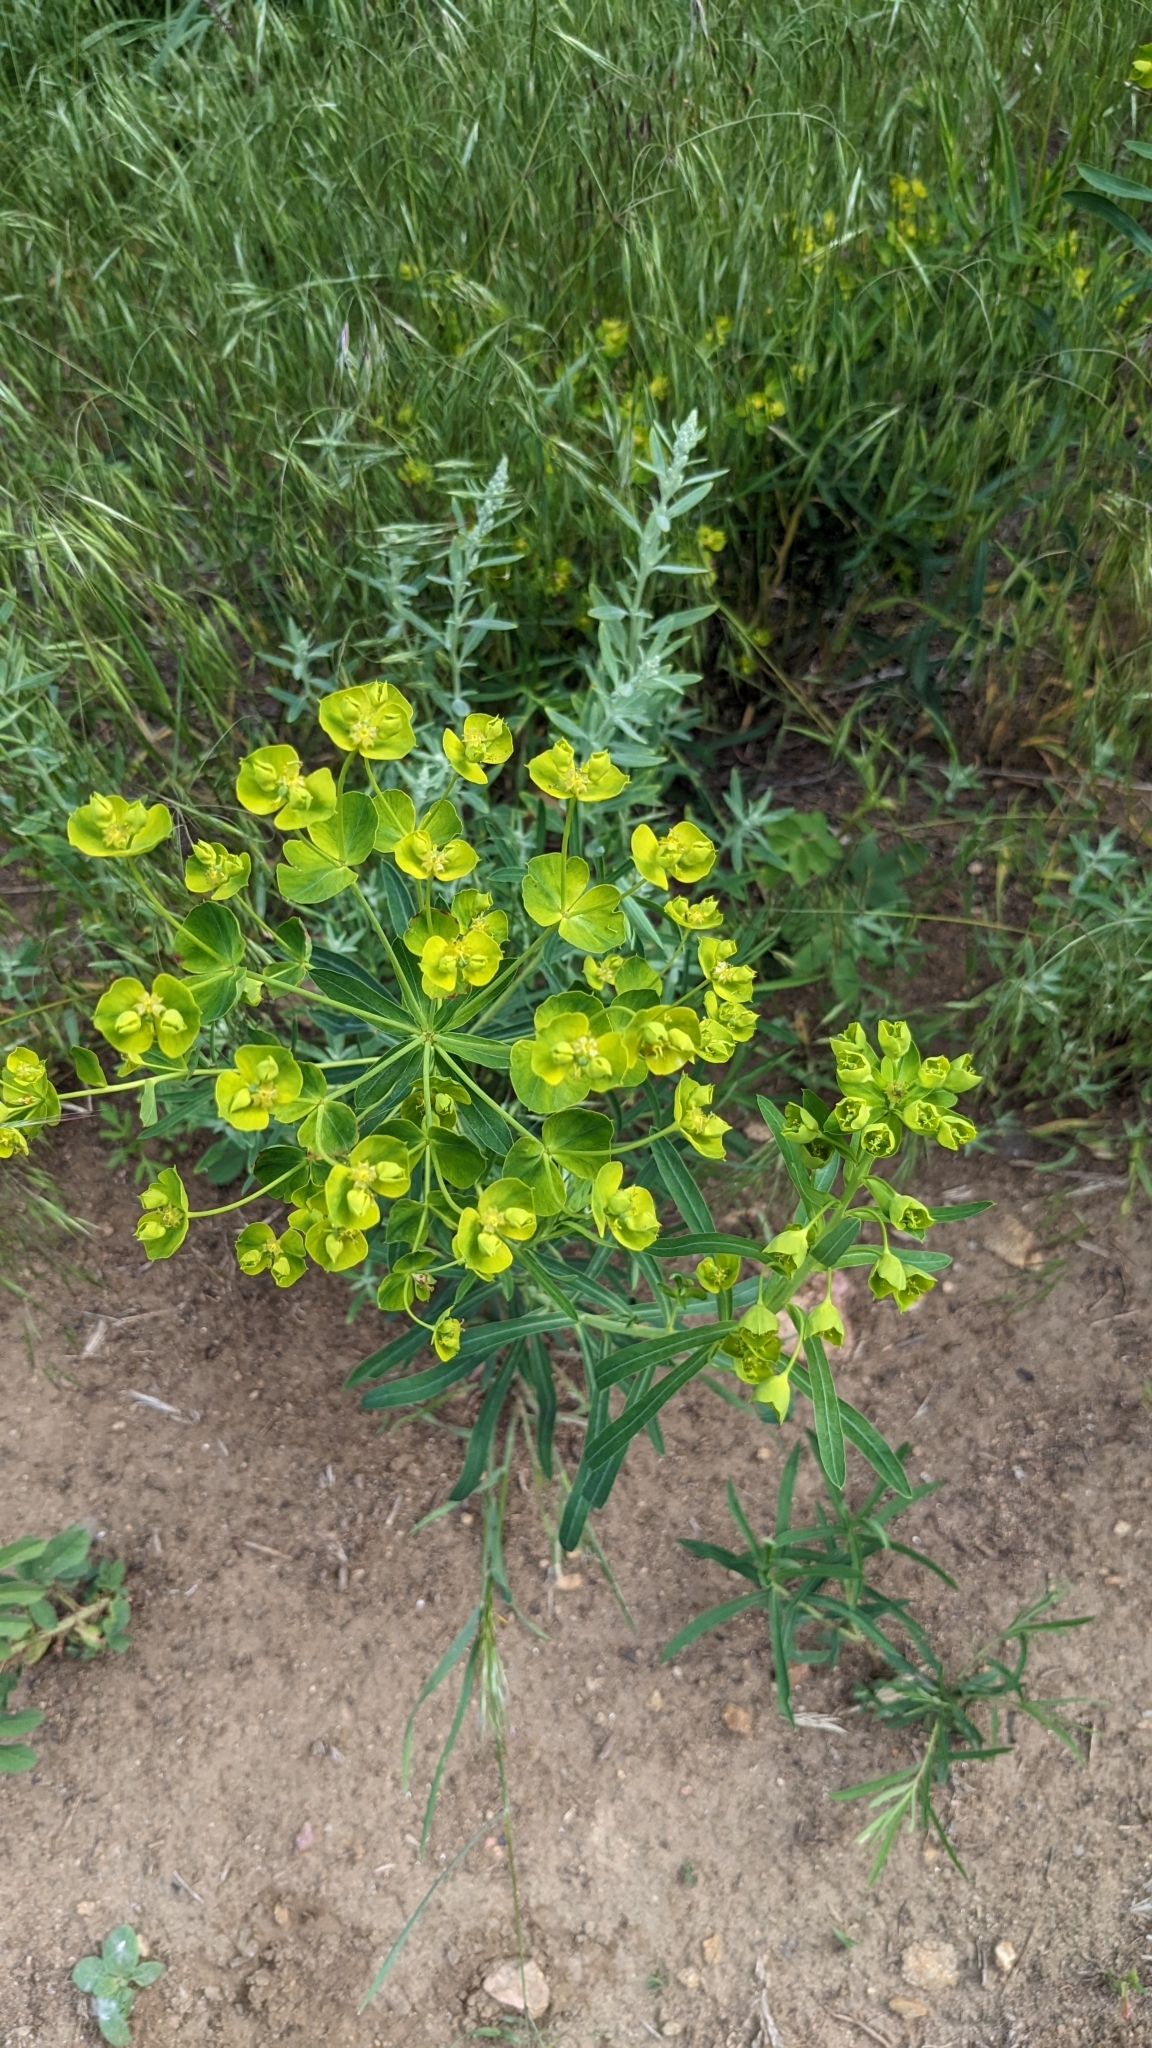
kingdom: Plantae
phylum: Tracheophyta
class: Magnoliopsida
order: Malpighiales
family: Euphorbiaceae
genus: Euphorbia
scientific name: Euphorbia virgata
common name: Leafy spurge
